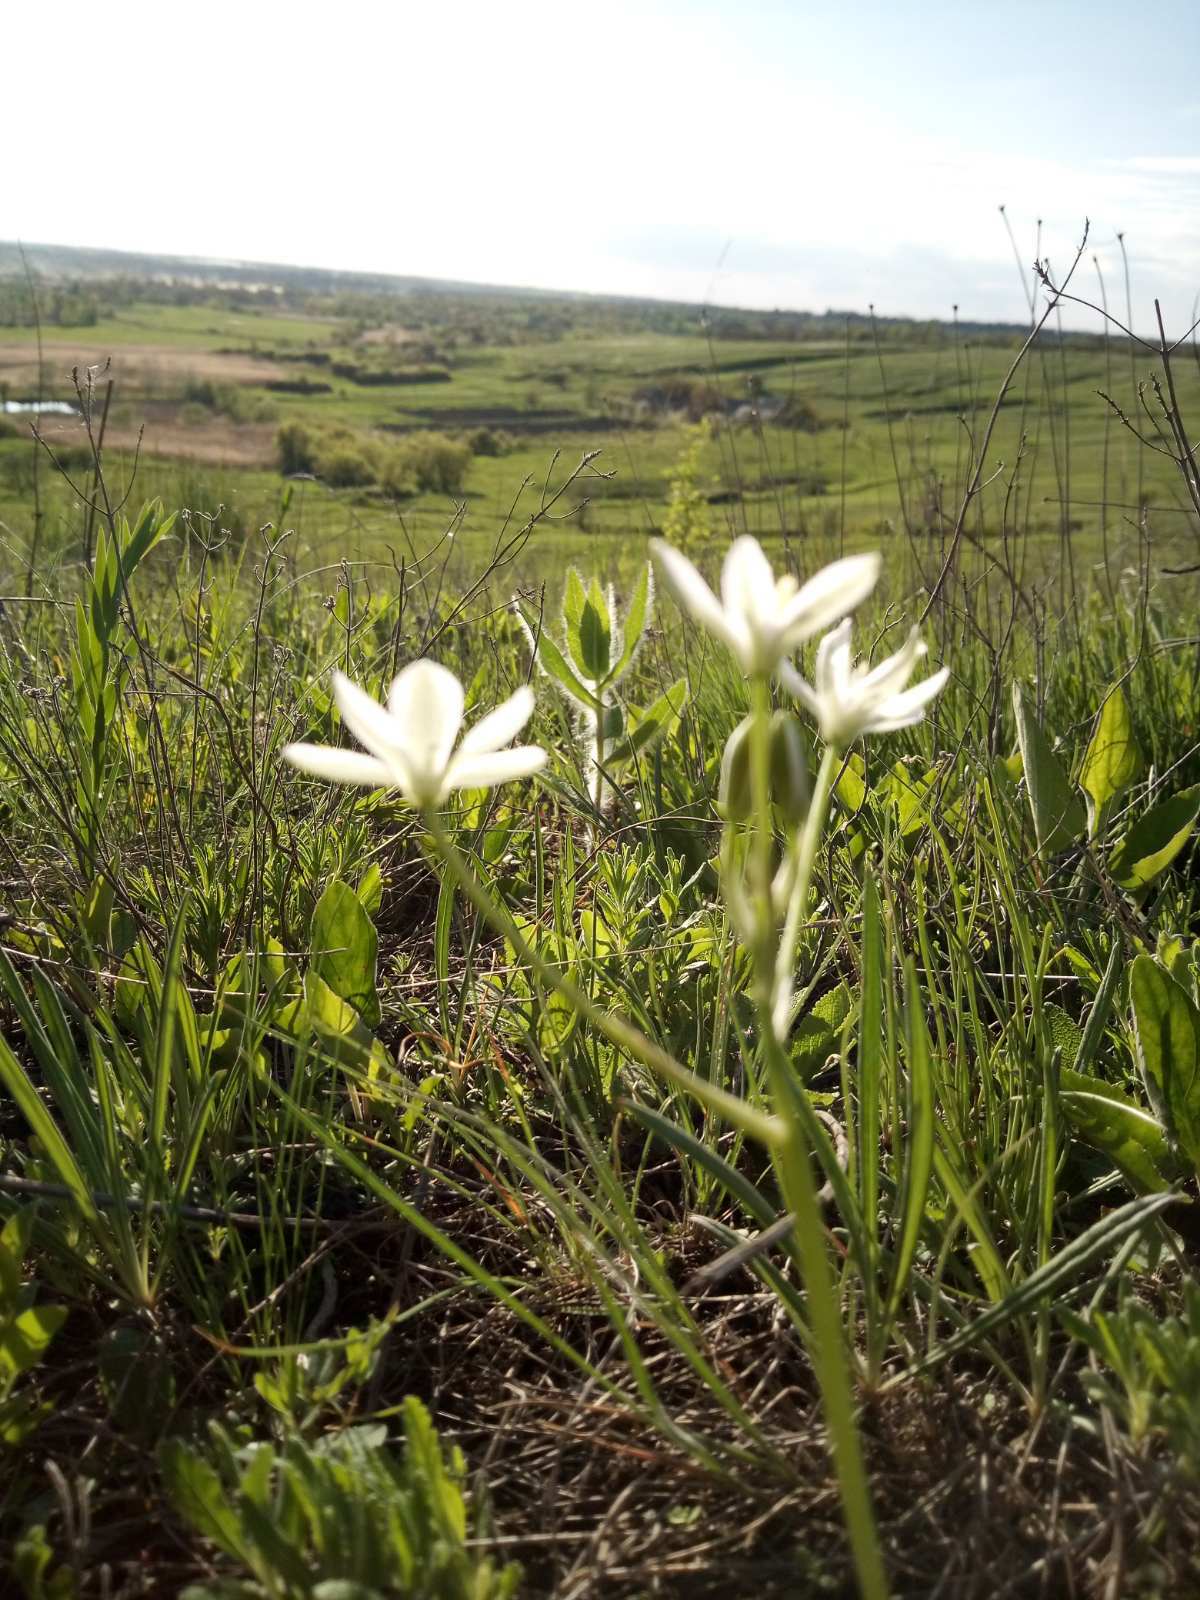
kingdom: Plantae
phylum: Tracheophyta
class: Liliopsida
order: Asparagales
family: Asparagaceae
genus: Ornithogalum
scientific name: Ornithogalum orthophyllum
